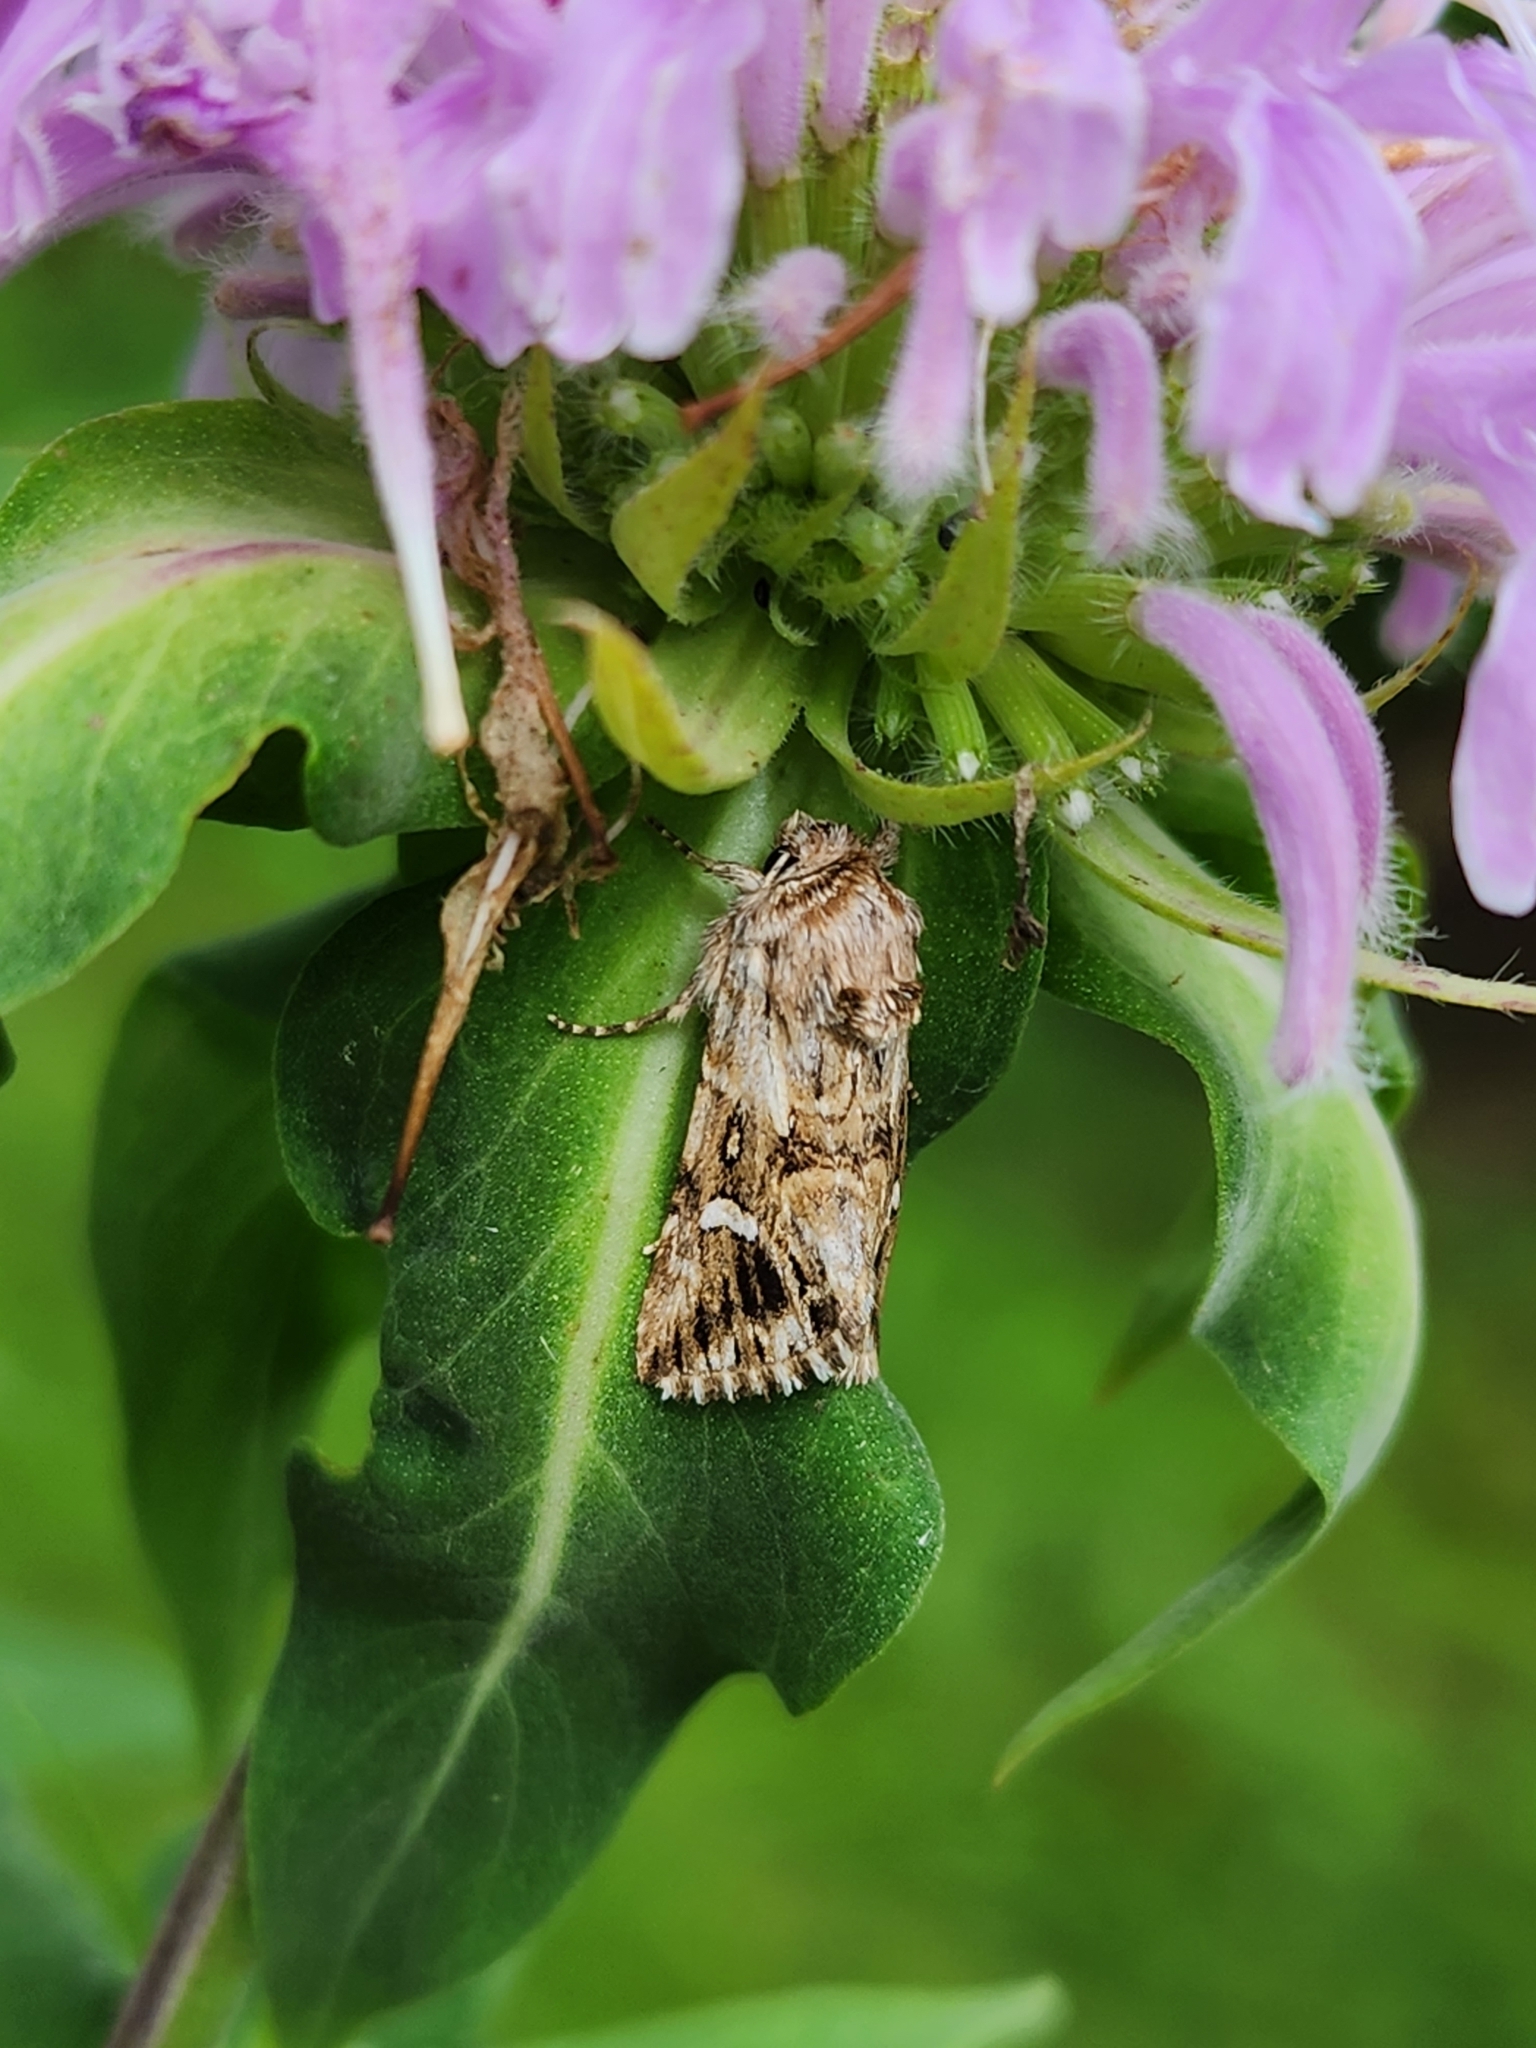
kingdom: Animalia
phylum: Arthropoda
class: Insecta
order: Lepidoptera
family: Noctuidae
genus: Calophasia
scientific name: Calophasia lunula
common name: Toadflax brocade
